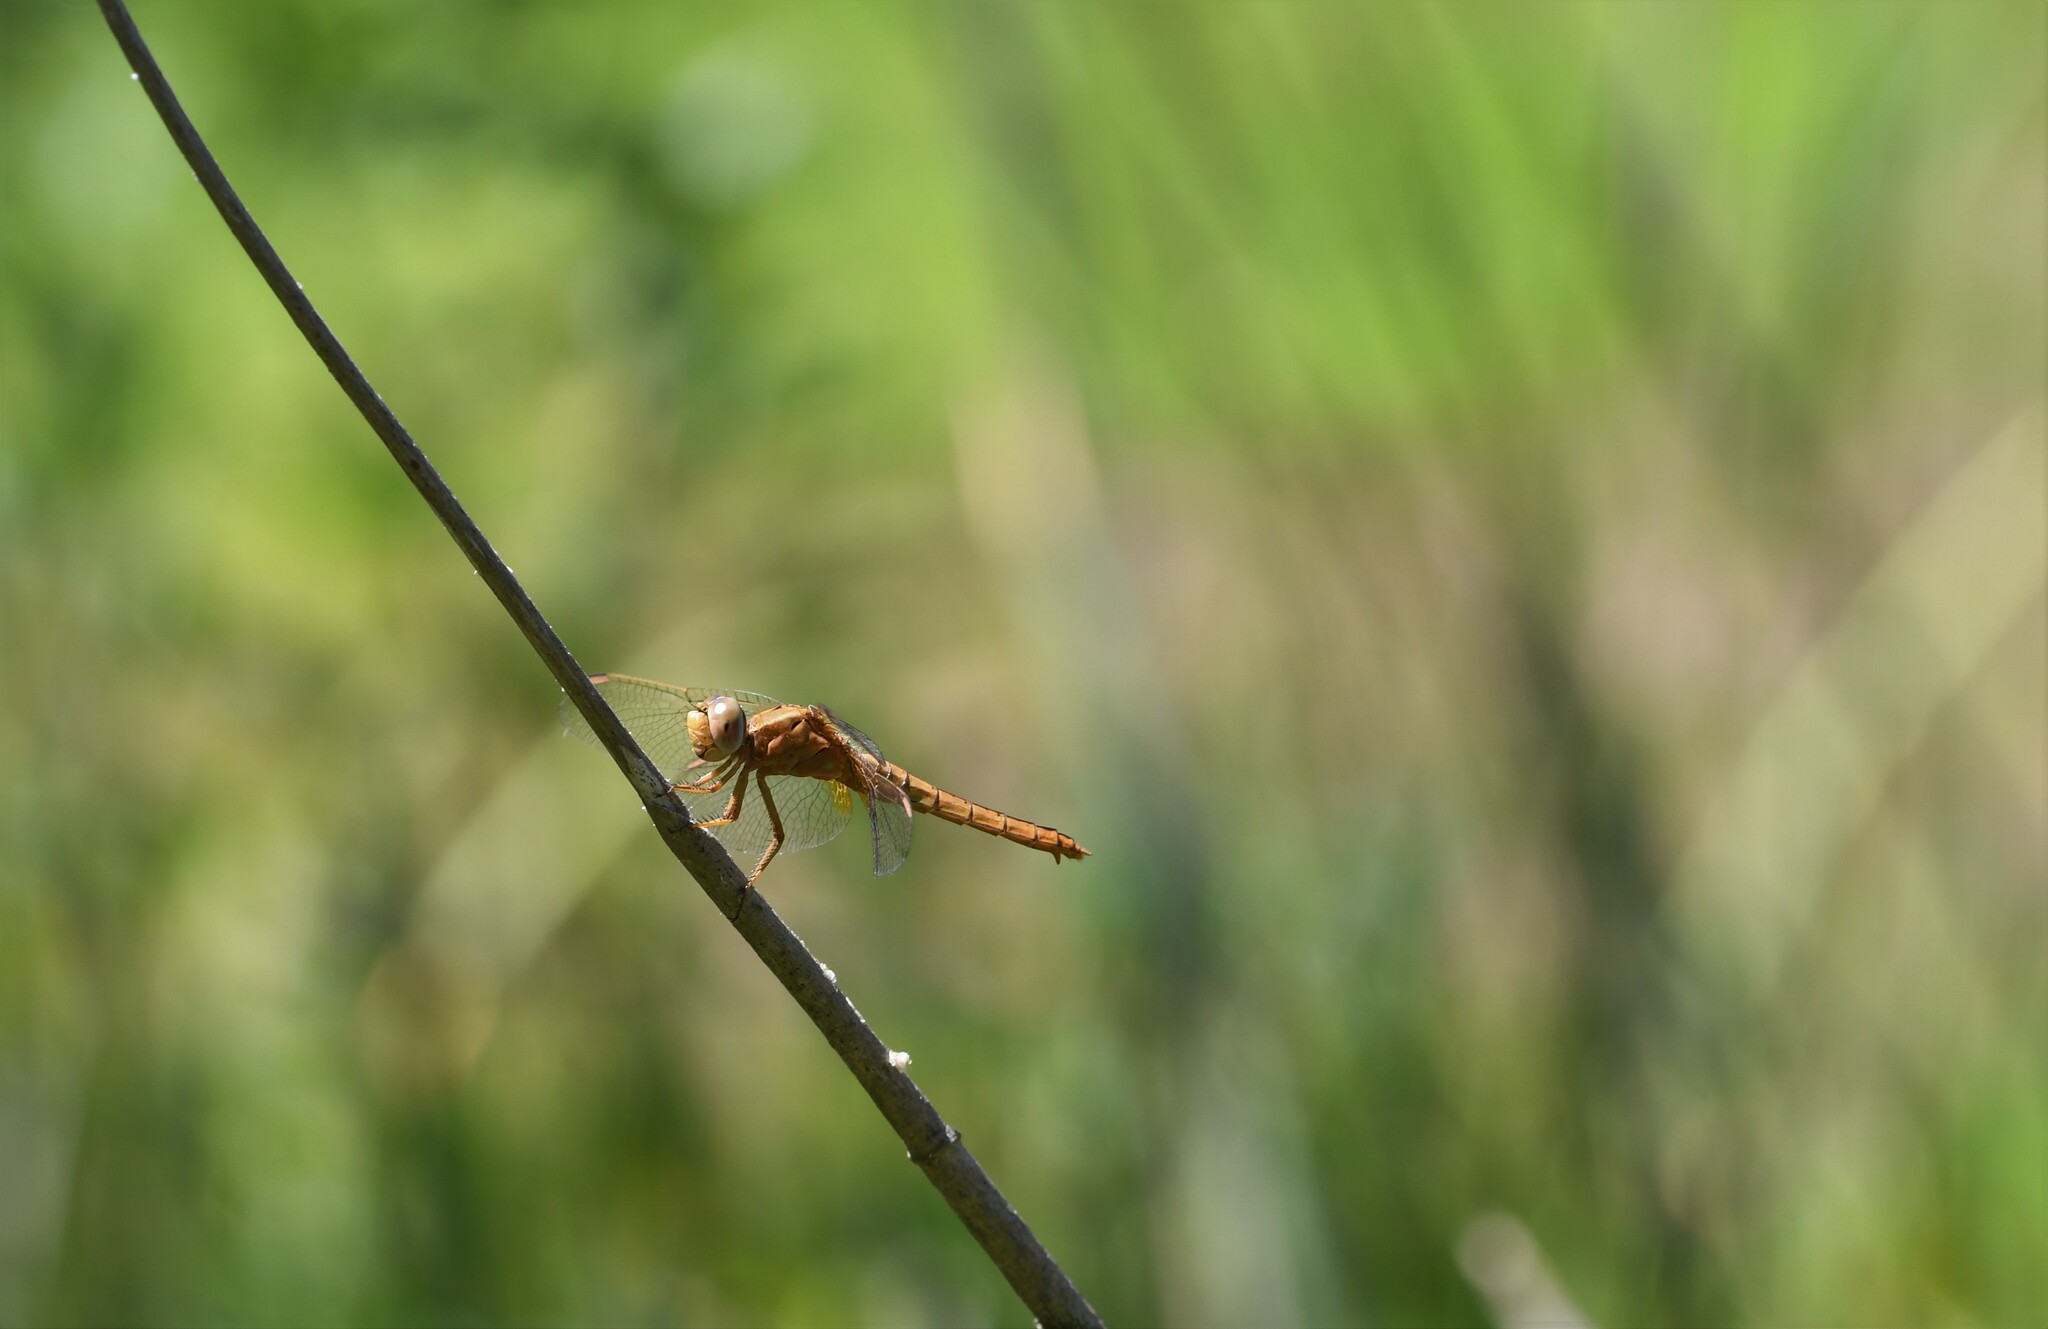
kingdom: Animalia
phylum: Arthropoda
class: Insecta
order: Odonata
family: Libellulidae
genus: Crocothemis
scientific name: Crocothemis erythraea
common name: Scarlet dragonfly
